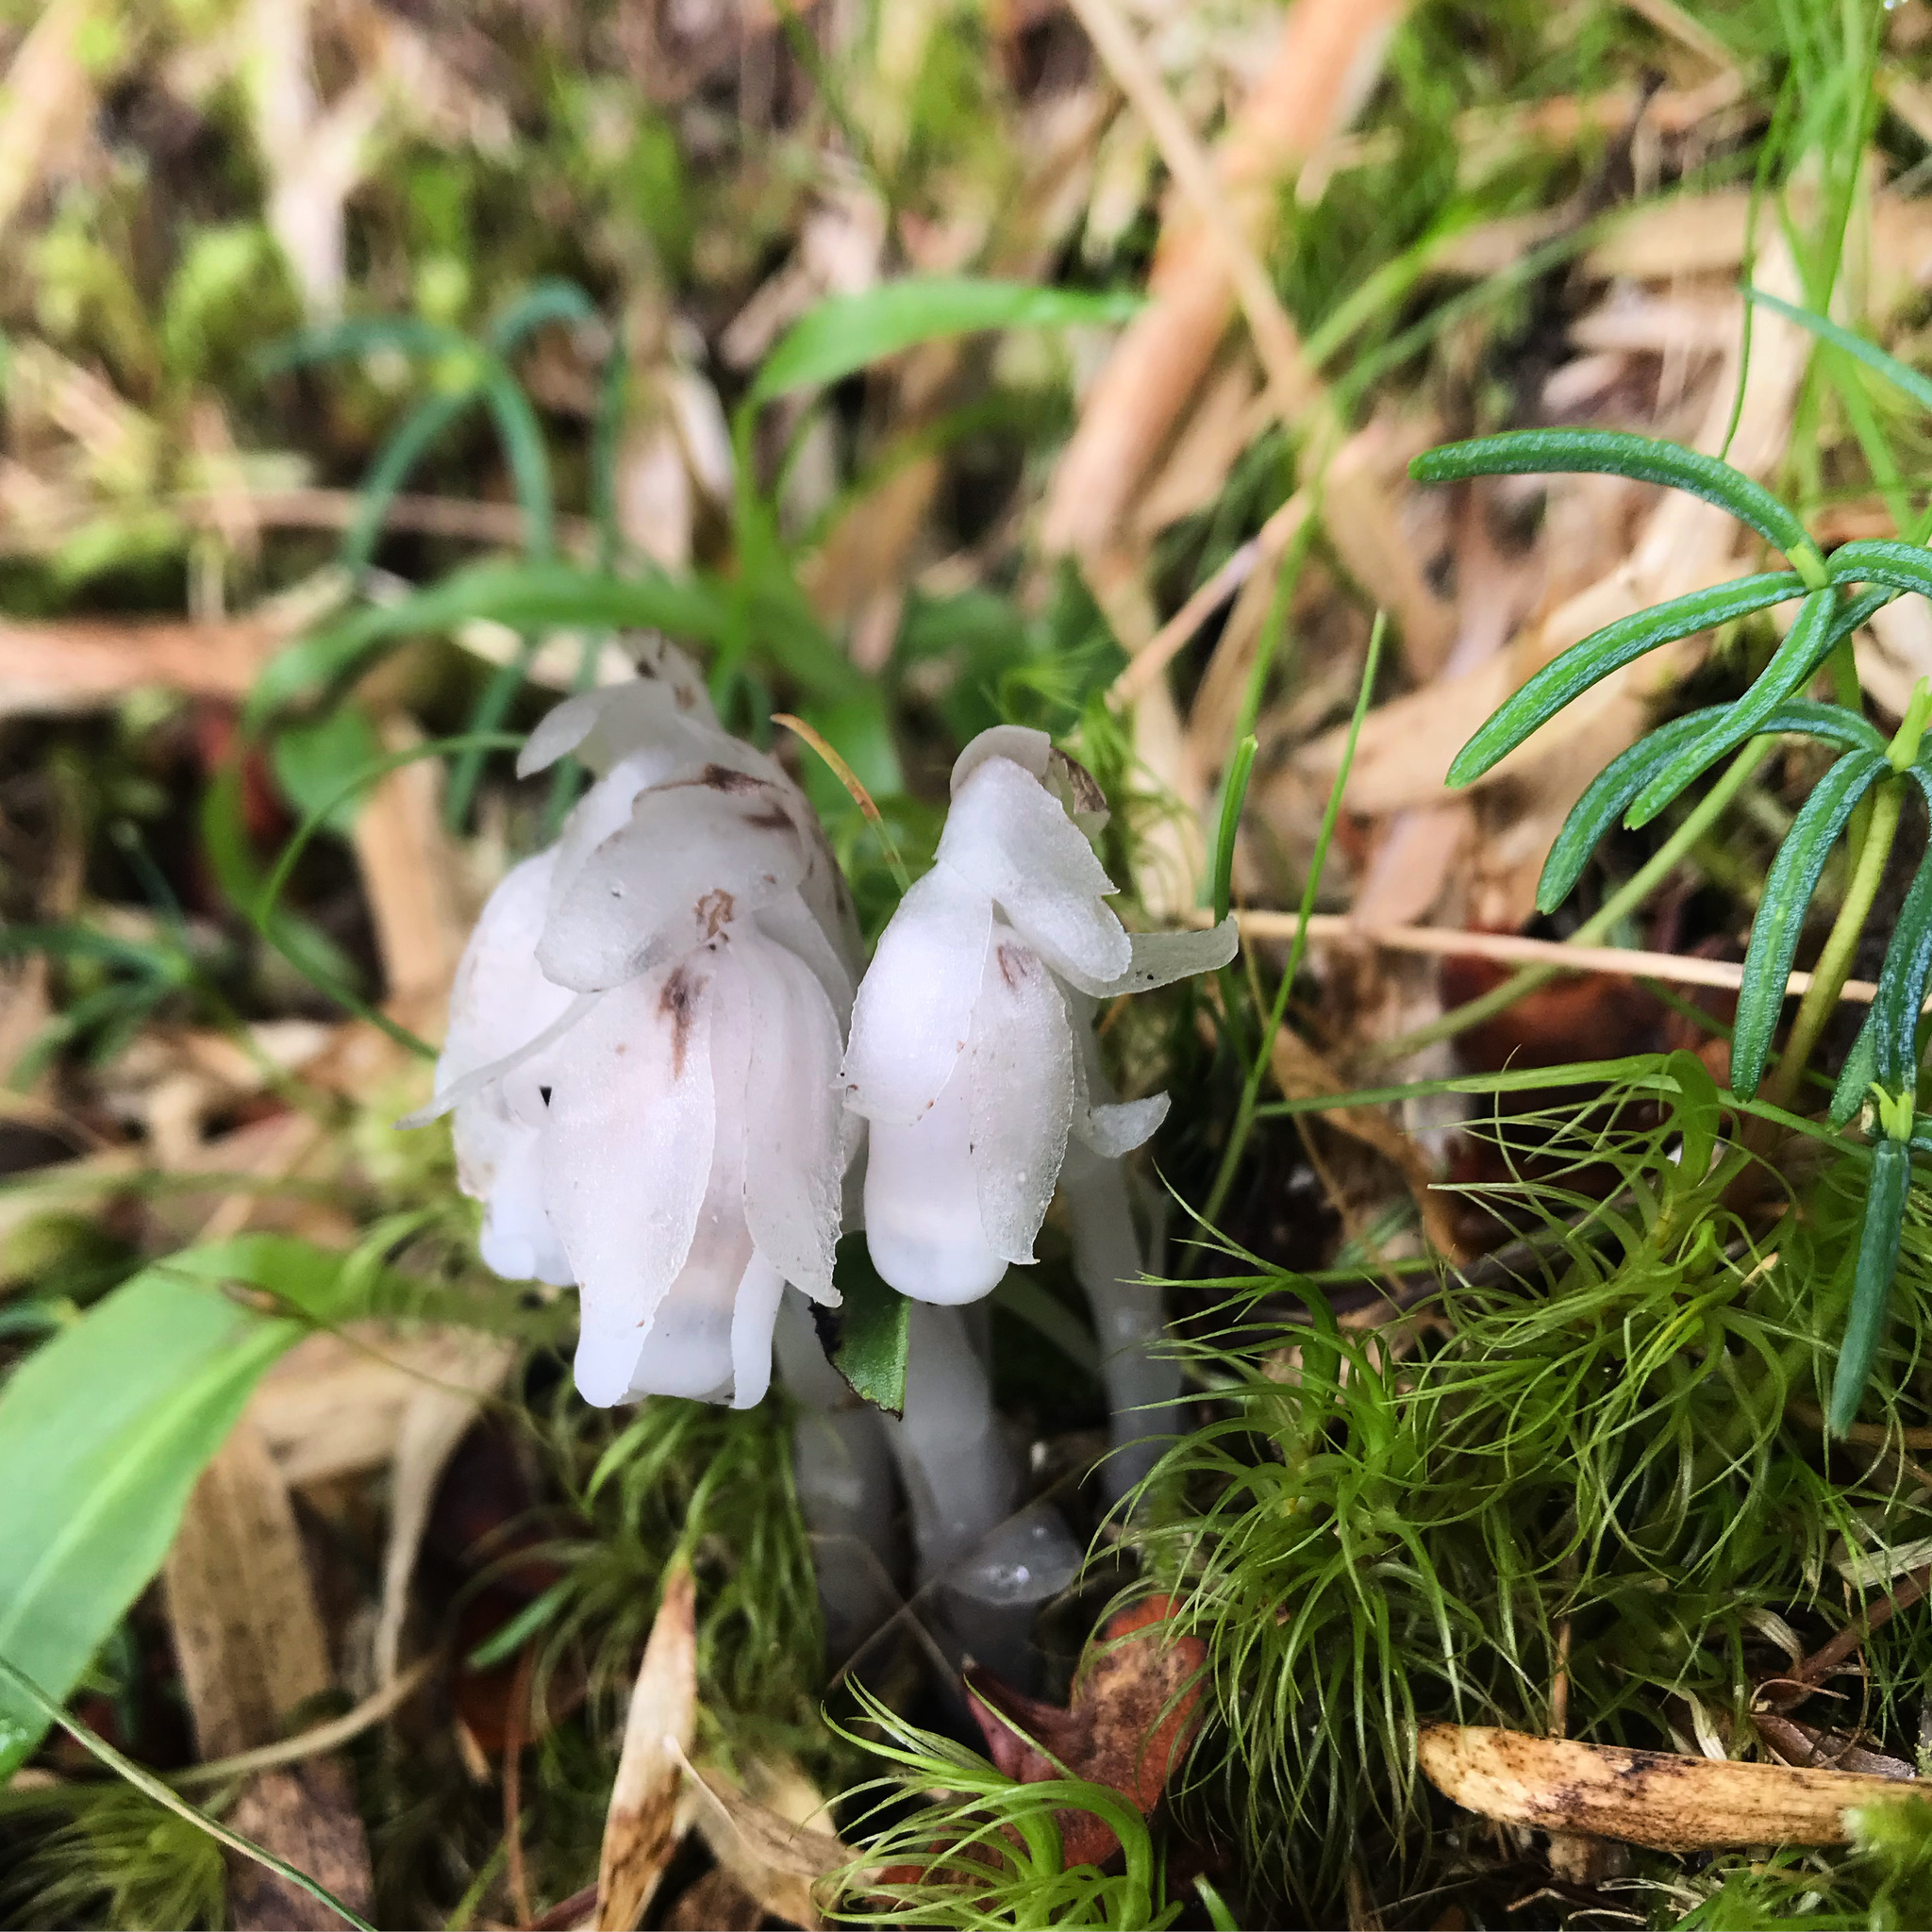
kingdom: Plantae
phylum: Tracheophyta
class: Magnoliopsida
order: Ericales
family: Ericaceae
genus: Monotropastrum
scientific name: Monotropastrum humile
